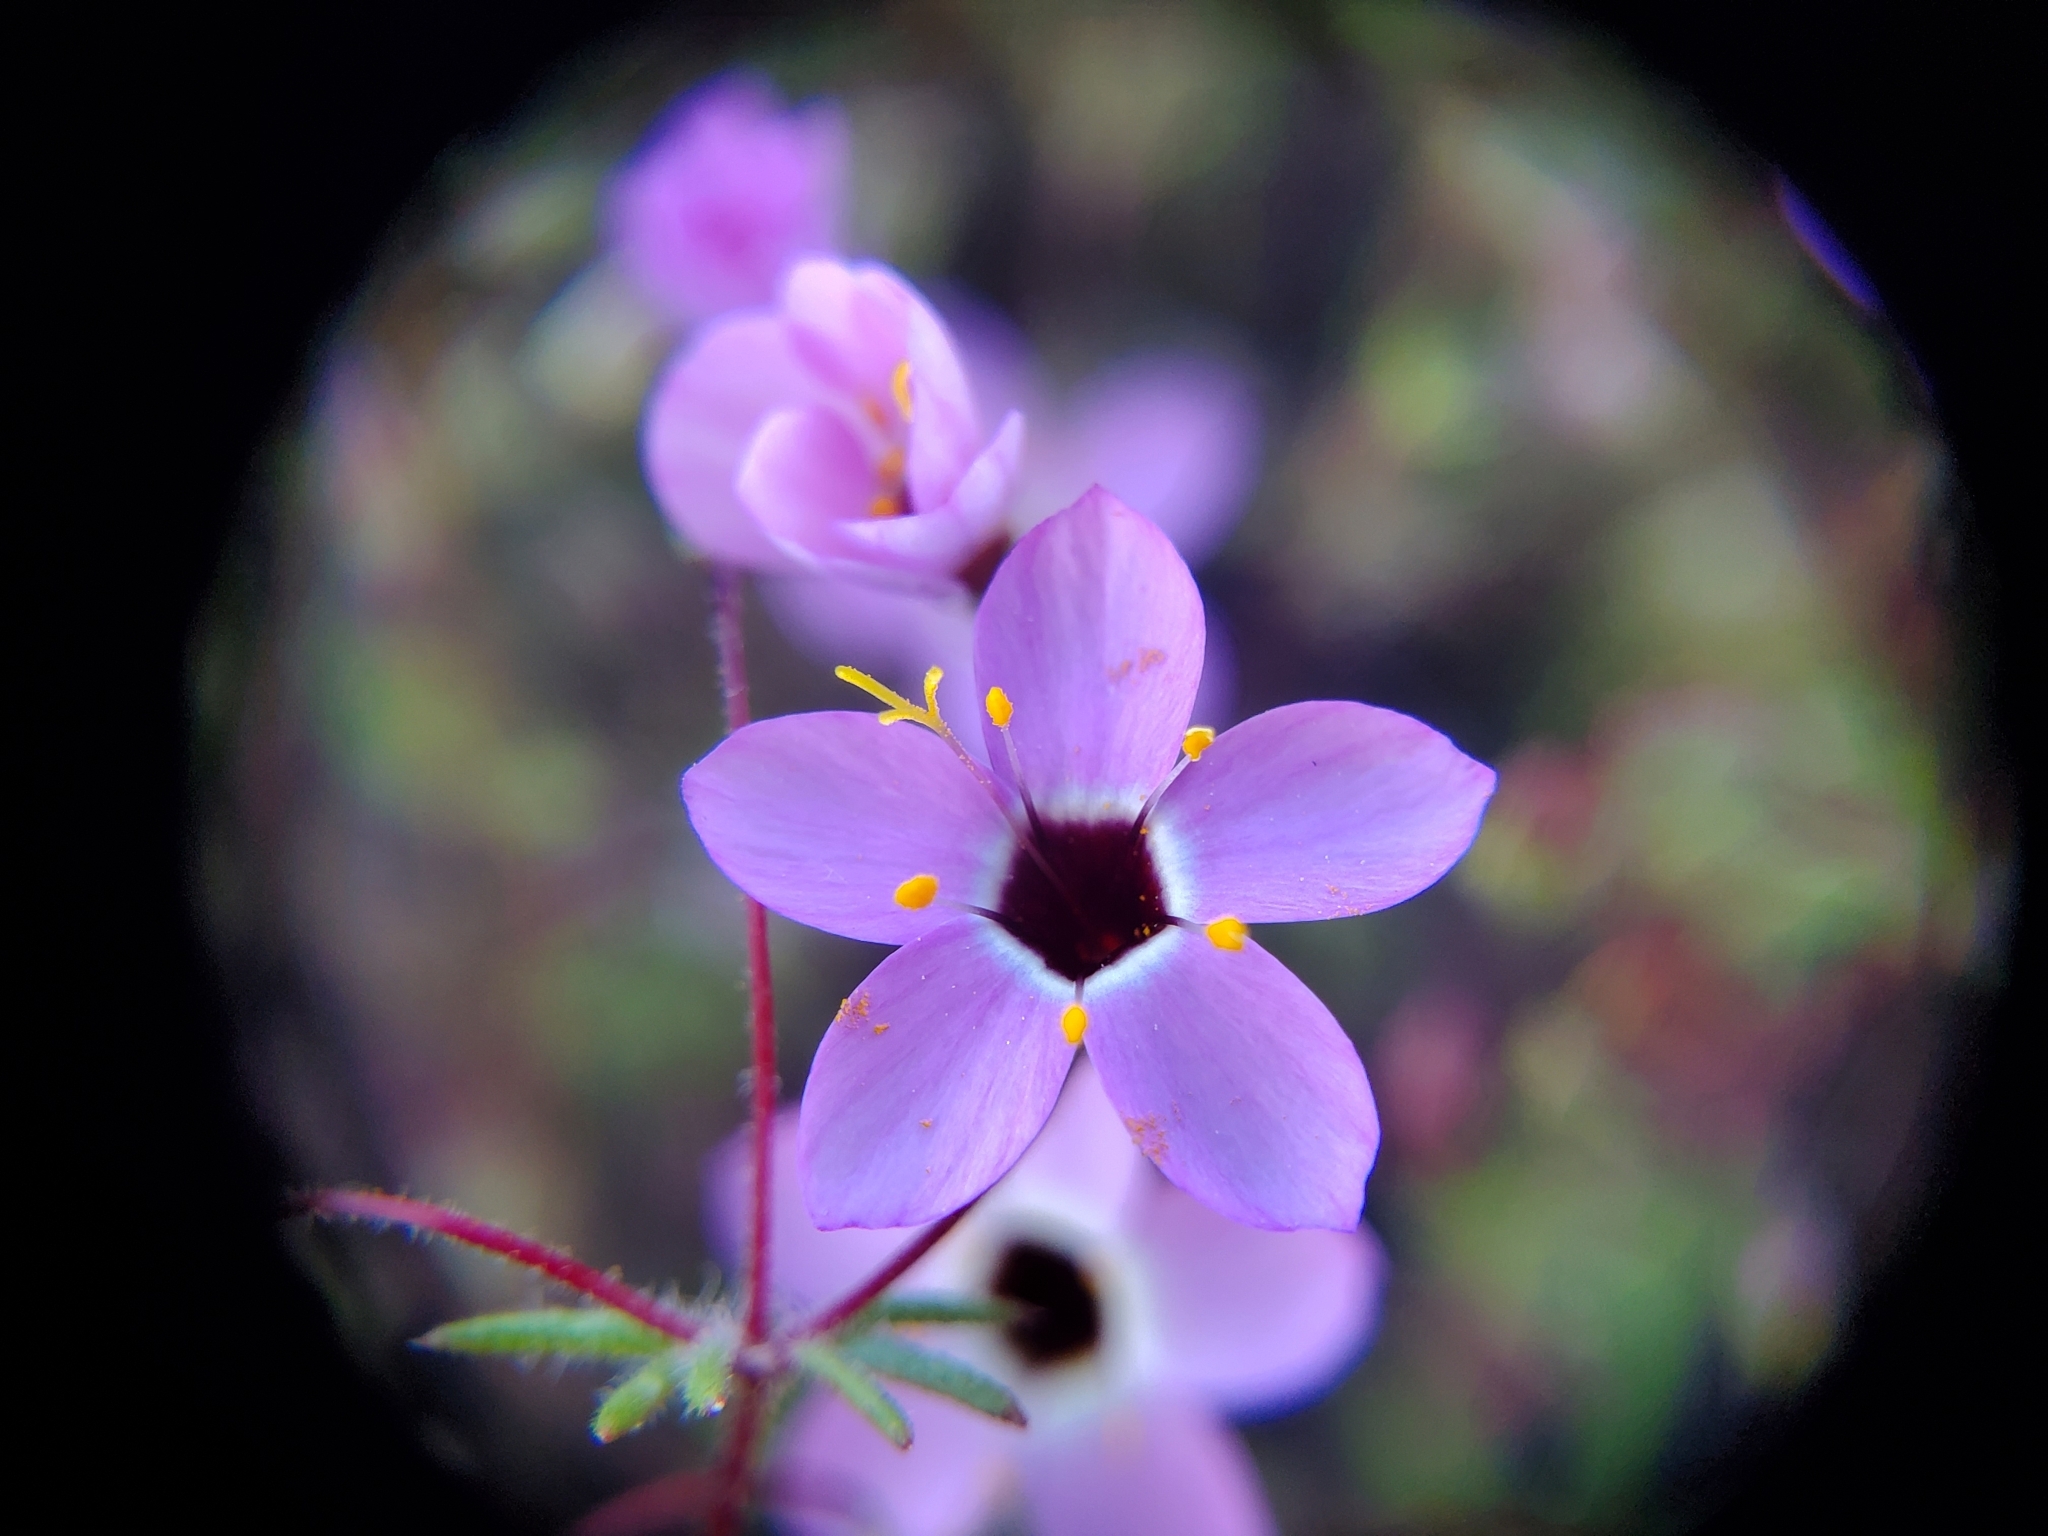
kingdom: Plantae
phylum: Tracheophyta
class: Magnoliopsida
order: Ericales
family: Polemoniaceae
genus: Leptosiphon
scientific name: Leptosiphon ambiguus
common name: Serpentine linanthus
